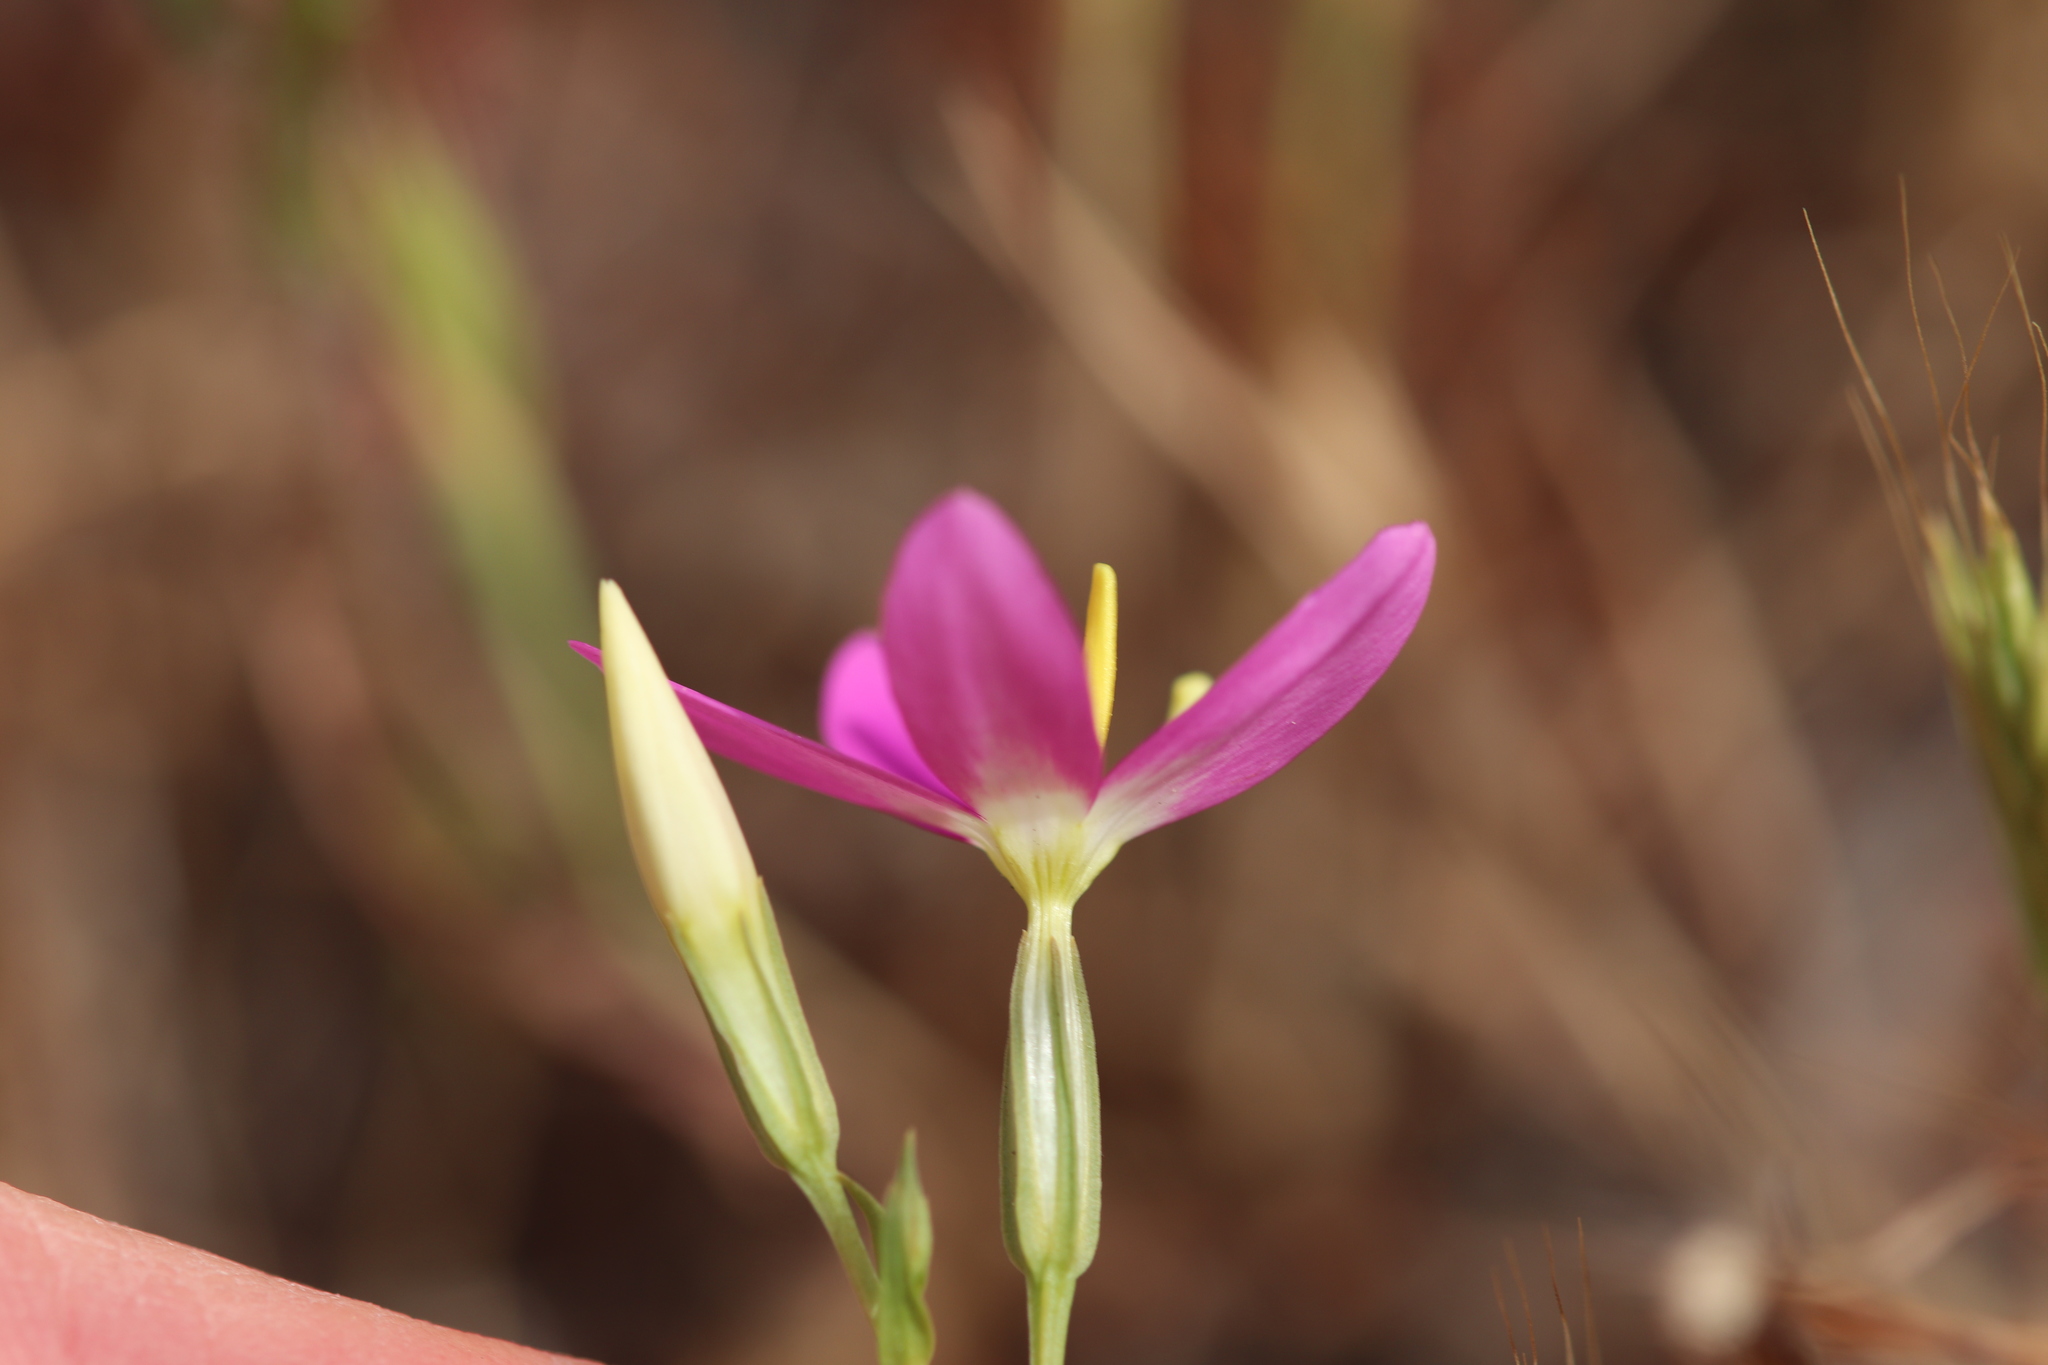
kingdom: Plantae
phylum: Tracheophyta
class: Magnoliopsida
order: Gentianales
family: Gentianaceae
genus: Zeltnera
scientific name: Zeltnera venusta
